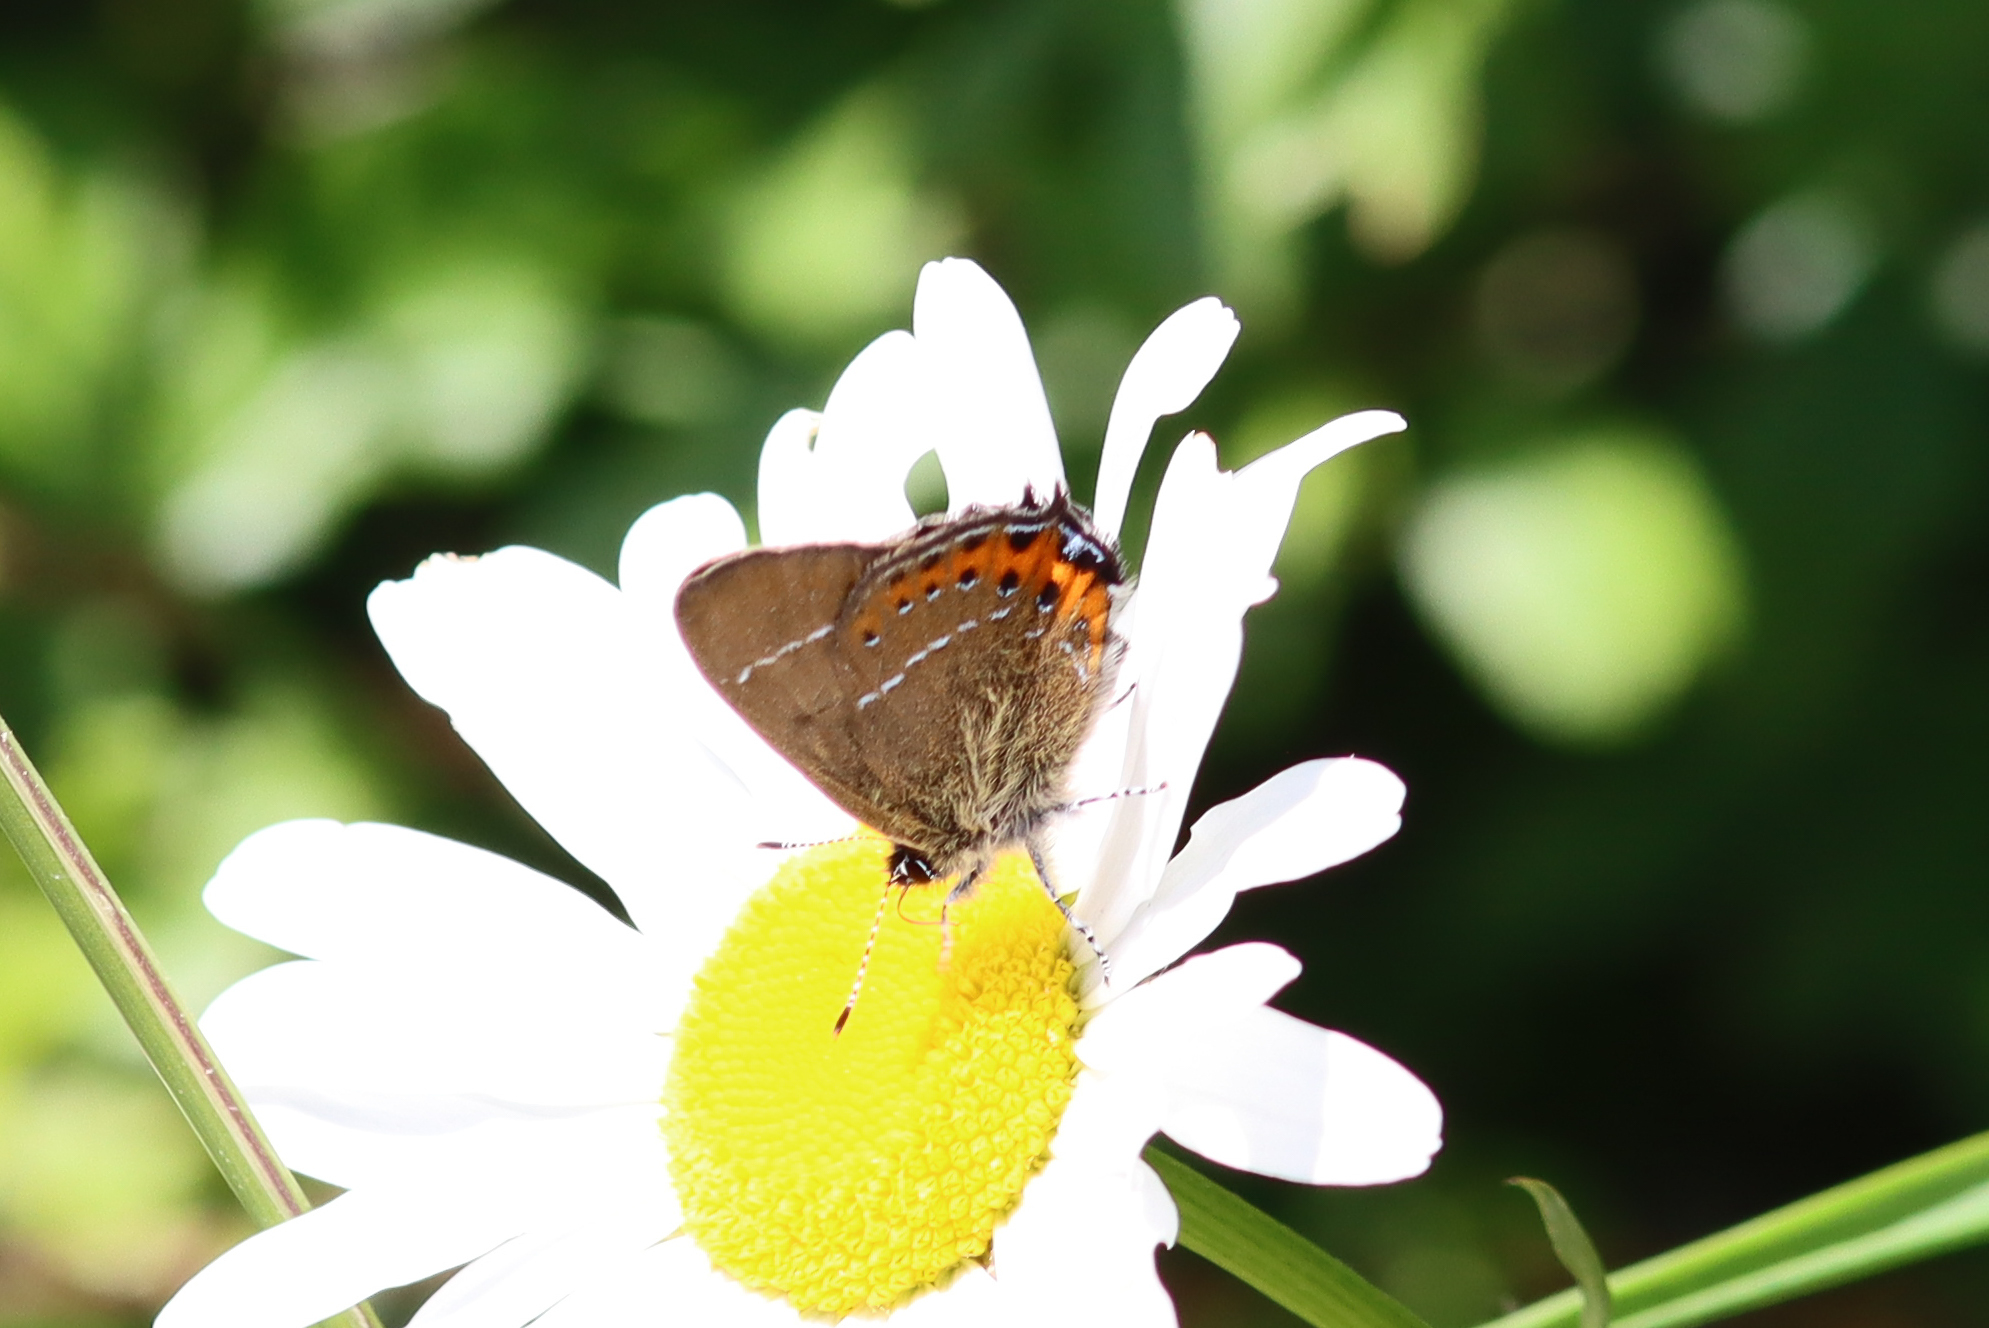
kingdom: Animalia
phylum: Arthropoda
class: Insecta
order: Lepidoptera
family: Lycaenidae
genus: Fixsenia
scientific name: Fixsenia pruni
